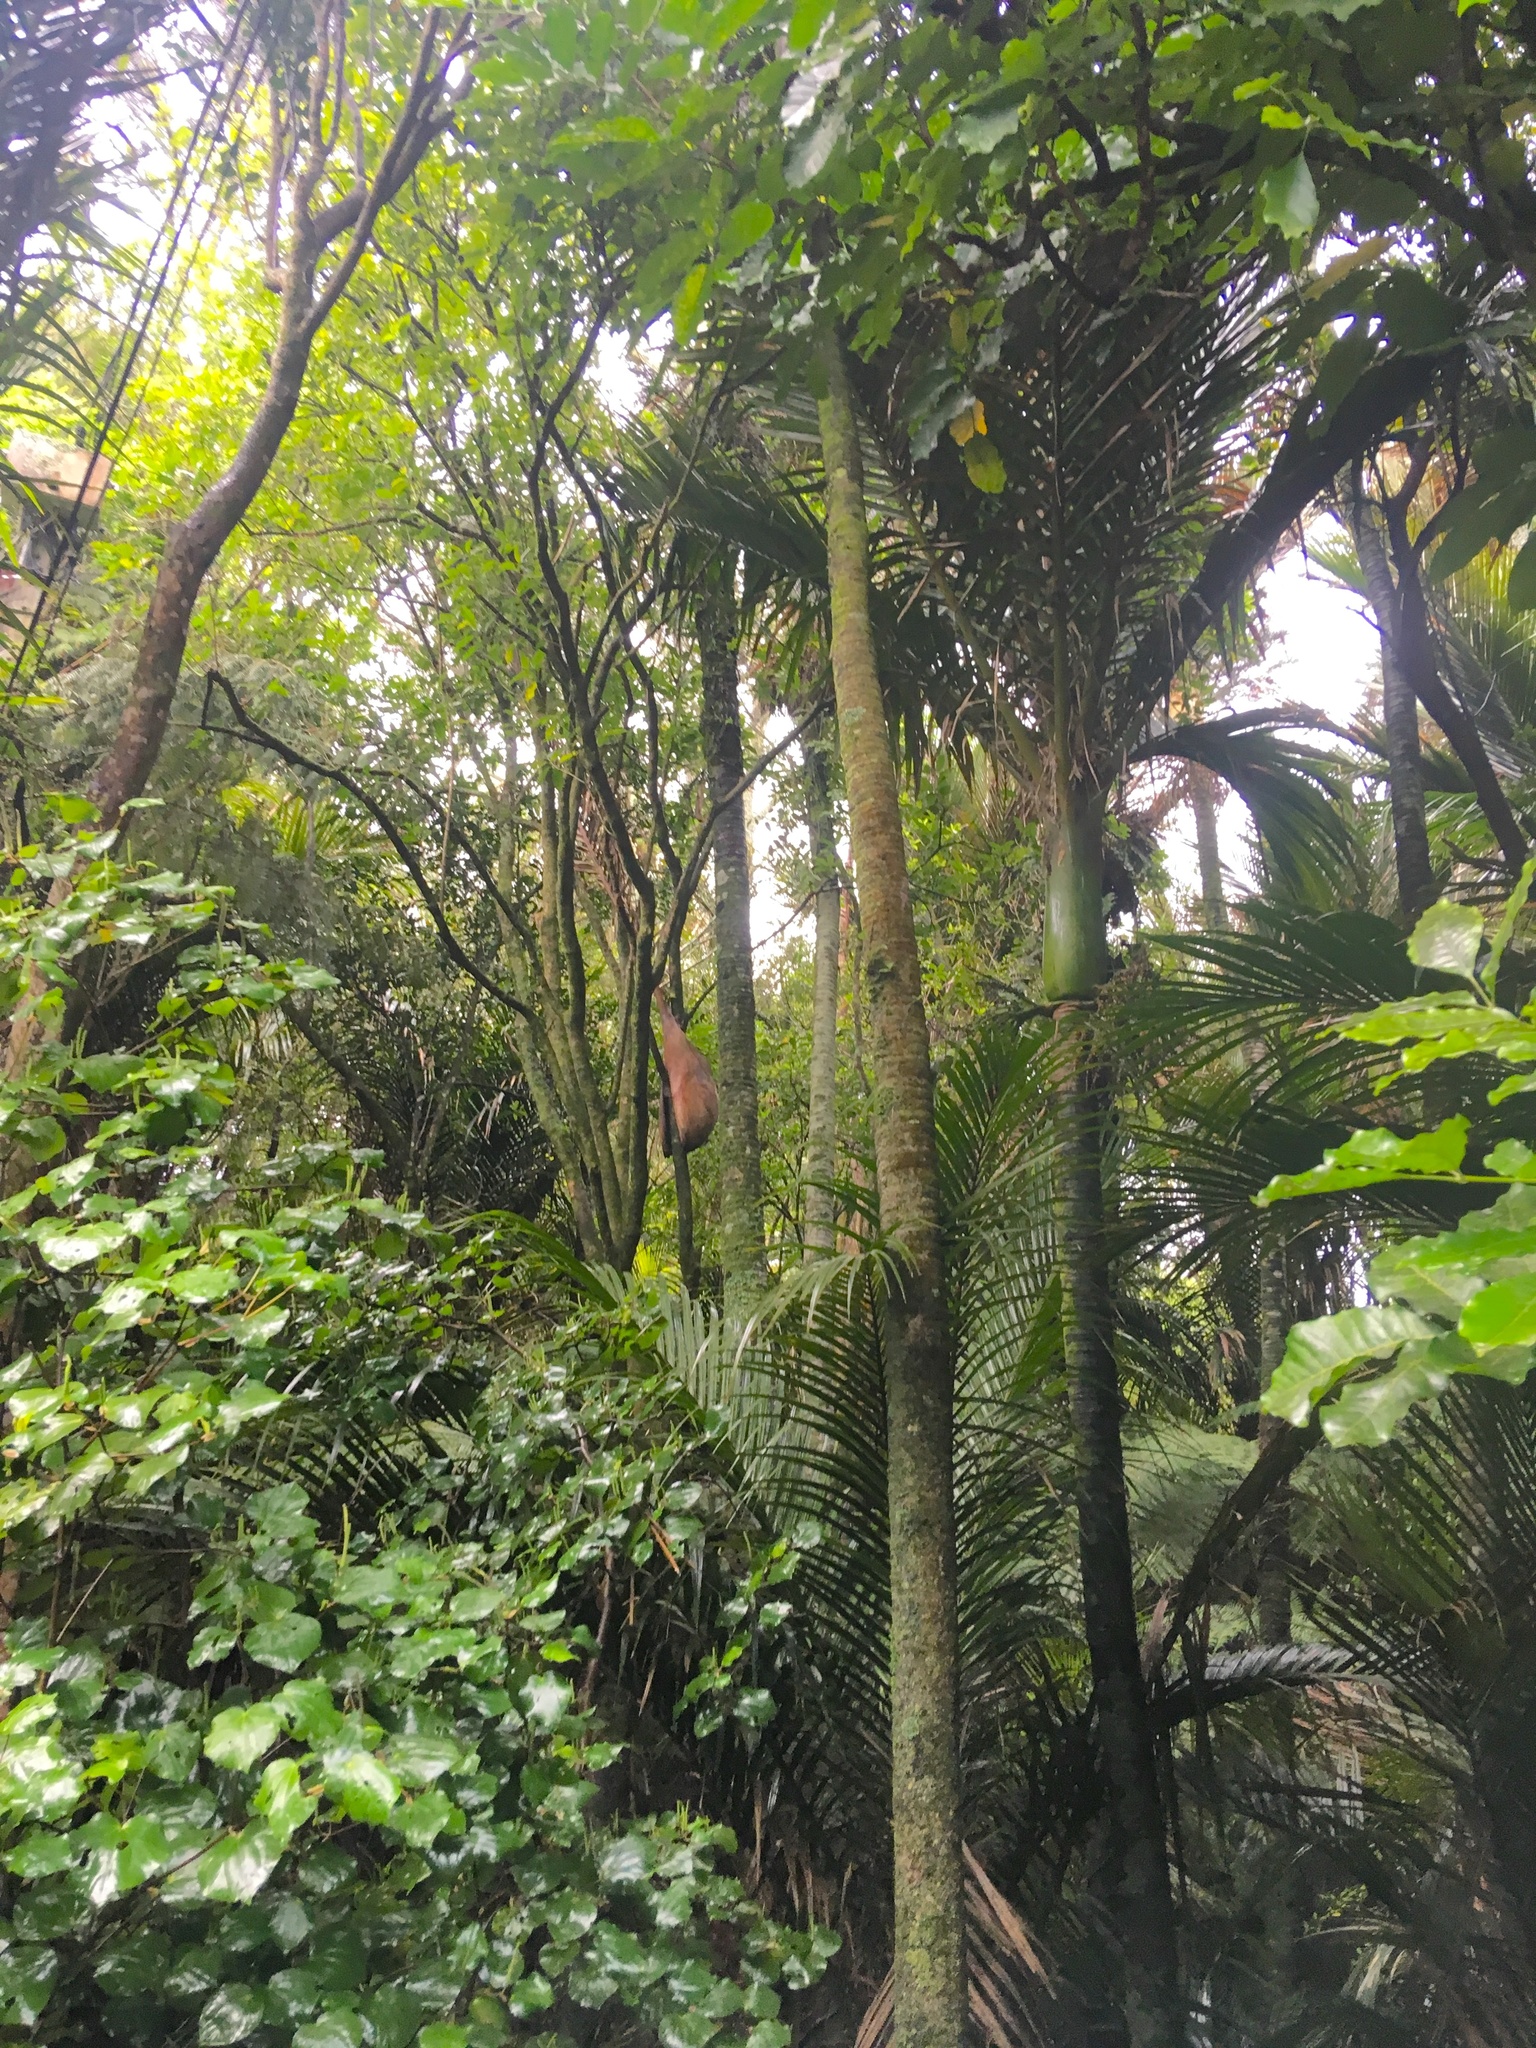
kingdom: Plantae
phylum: Tracheophyta
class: Liliopsida
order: Arecales
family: Arecaceae
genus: Rhopalostylis
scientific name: Rhopalostylis sapida
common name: Feather-duster palm
